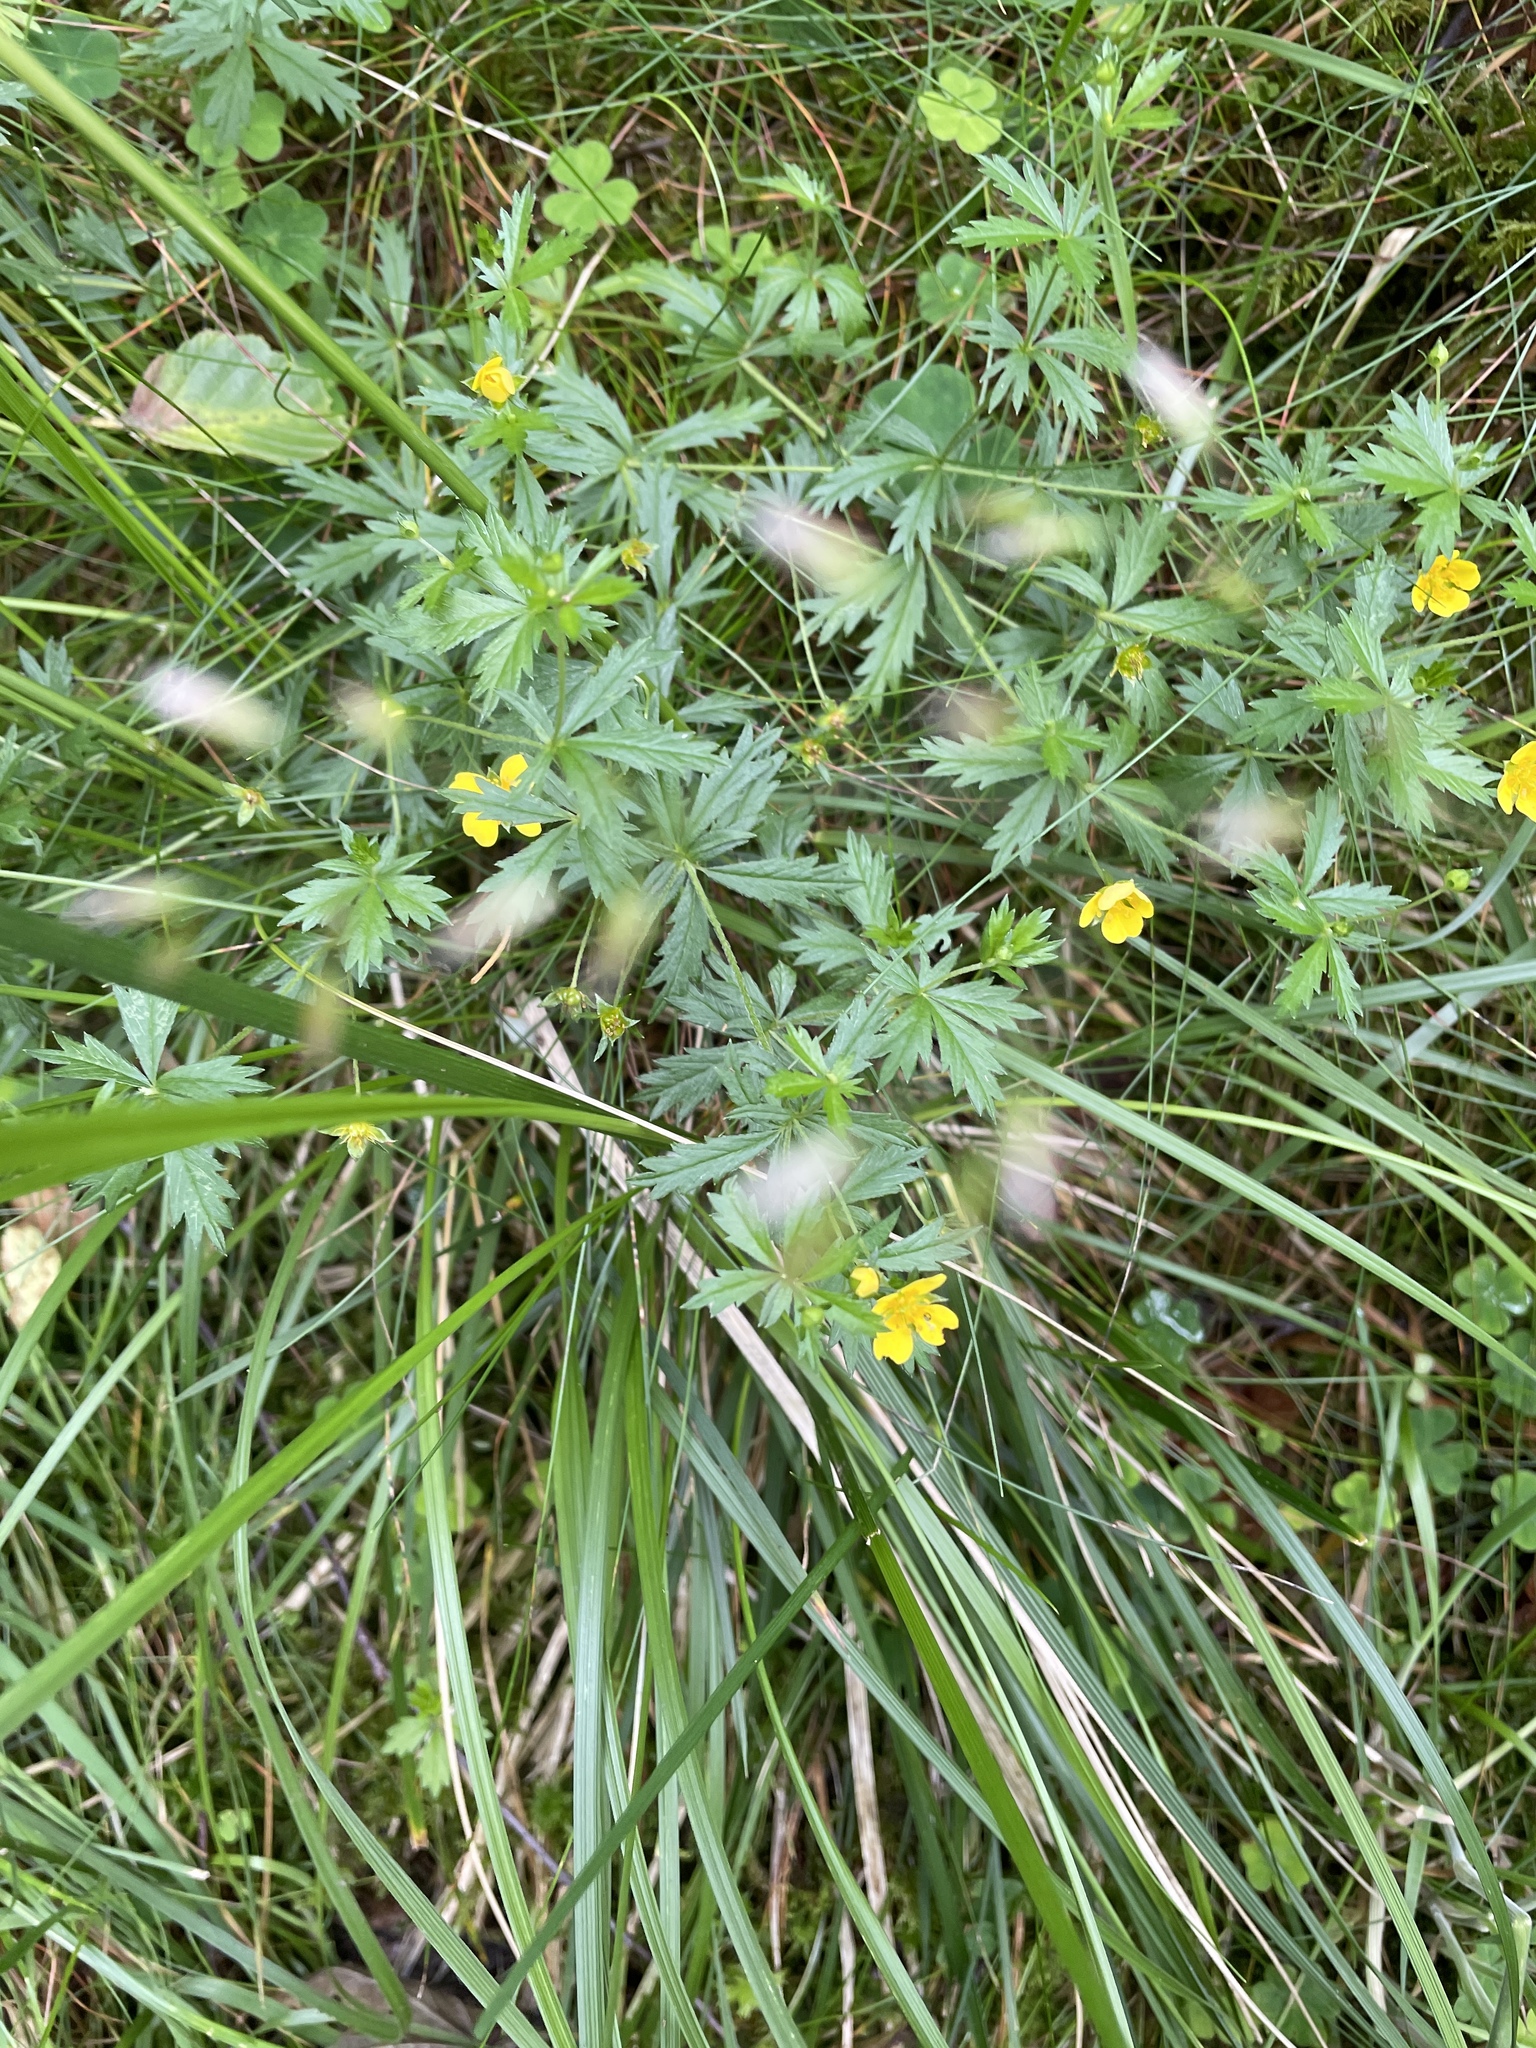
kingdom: Plantae
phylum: Tracheophyta
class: Magnoliopsida
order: Rosales
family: Rosaceae
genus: Potentilla
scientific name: Potentilla erecta
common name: Tormentil
